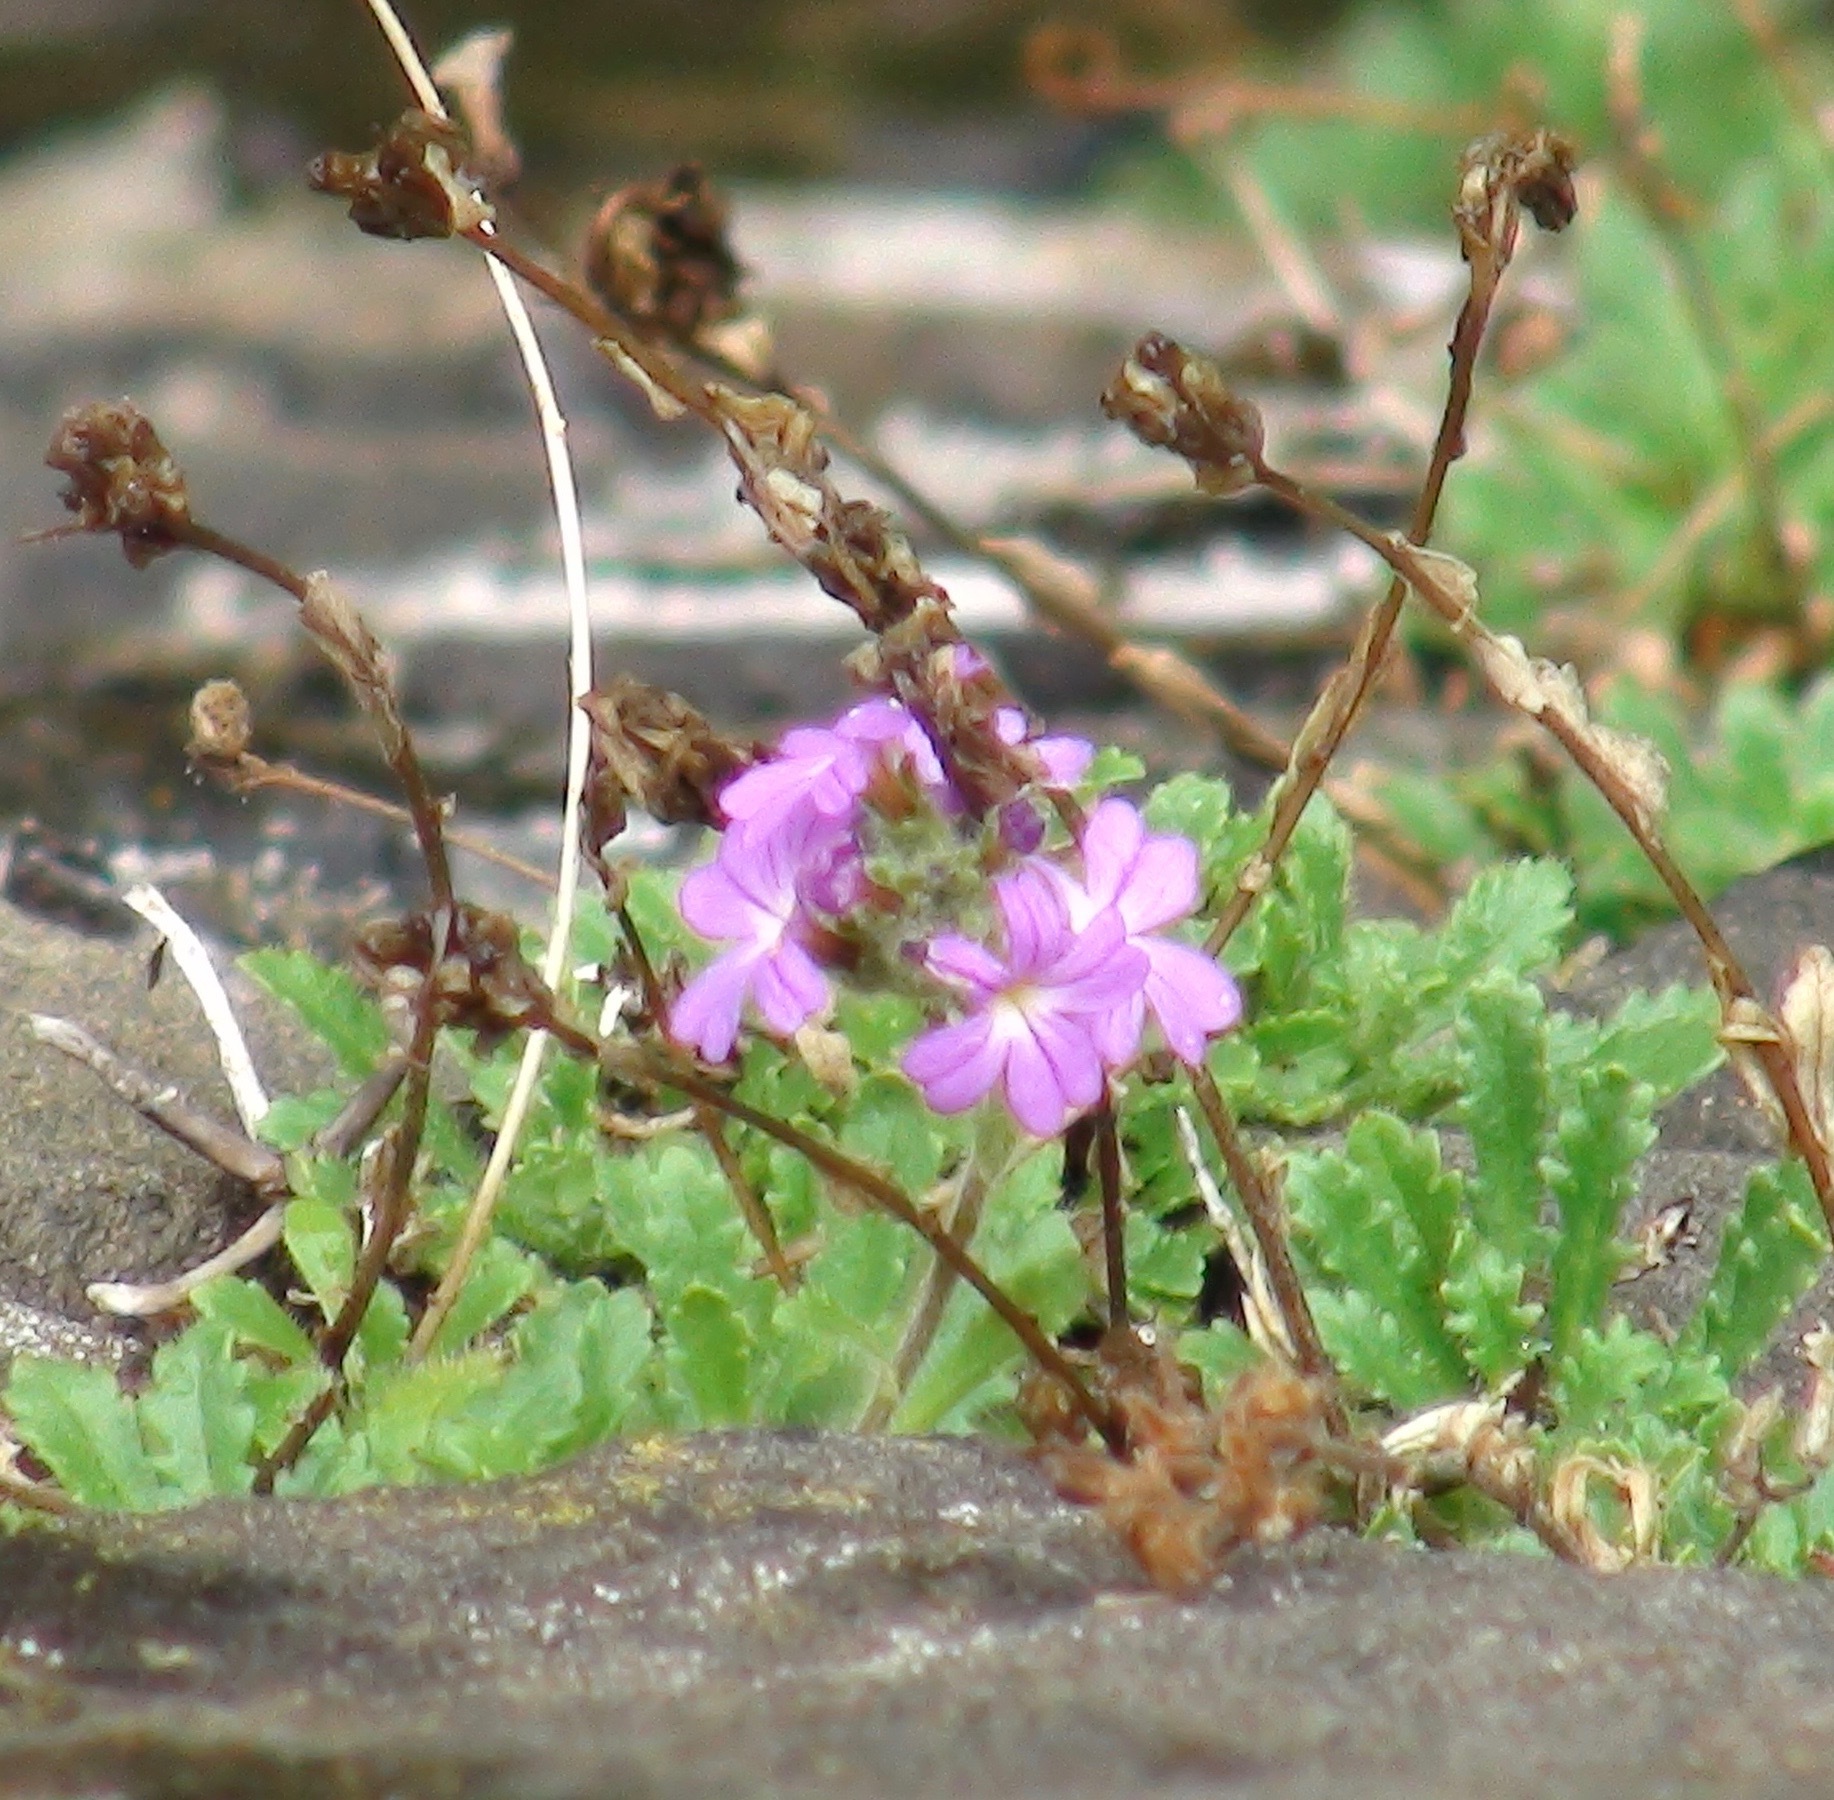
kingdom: Plantae
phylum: Tracheophyta
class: Magnoliopsida
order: Lamiales
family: Plantaginaceae
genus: Erinus
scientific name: Erinus alpinus
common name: Fairy foxglove
